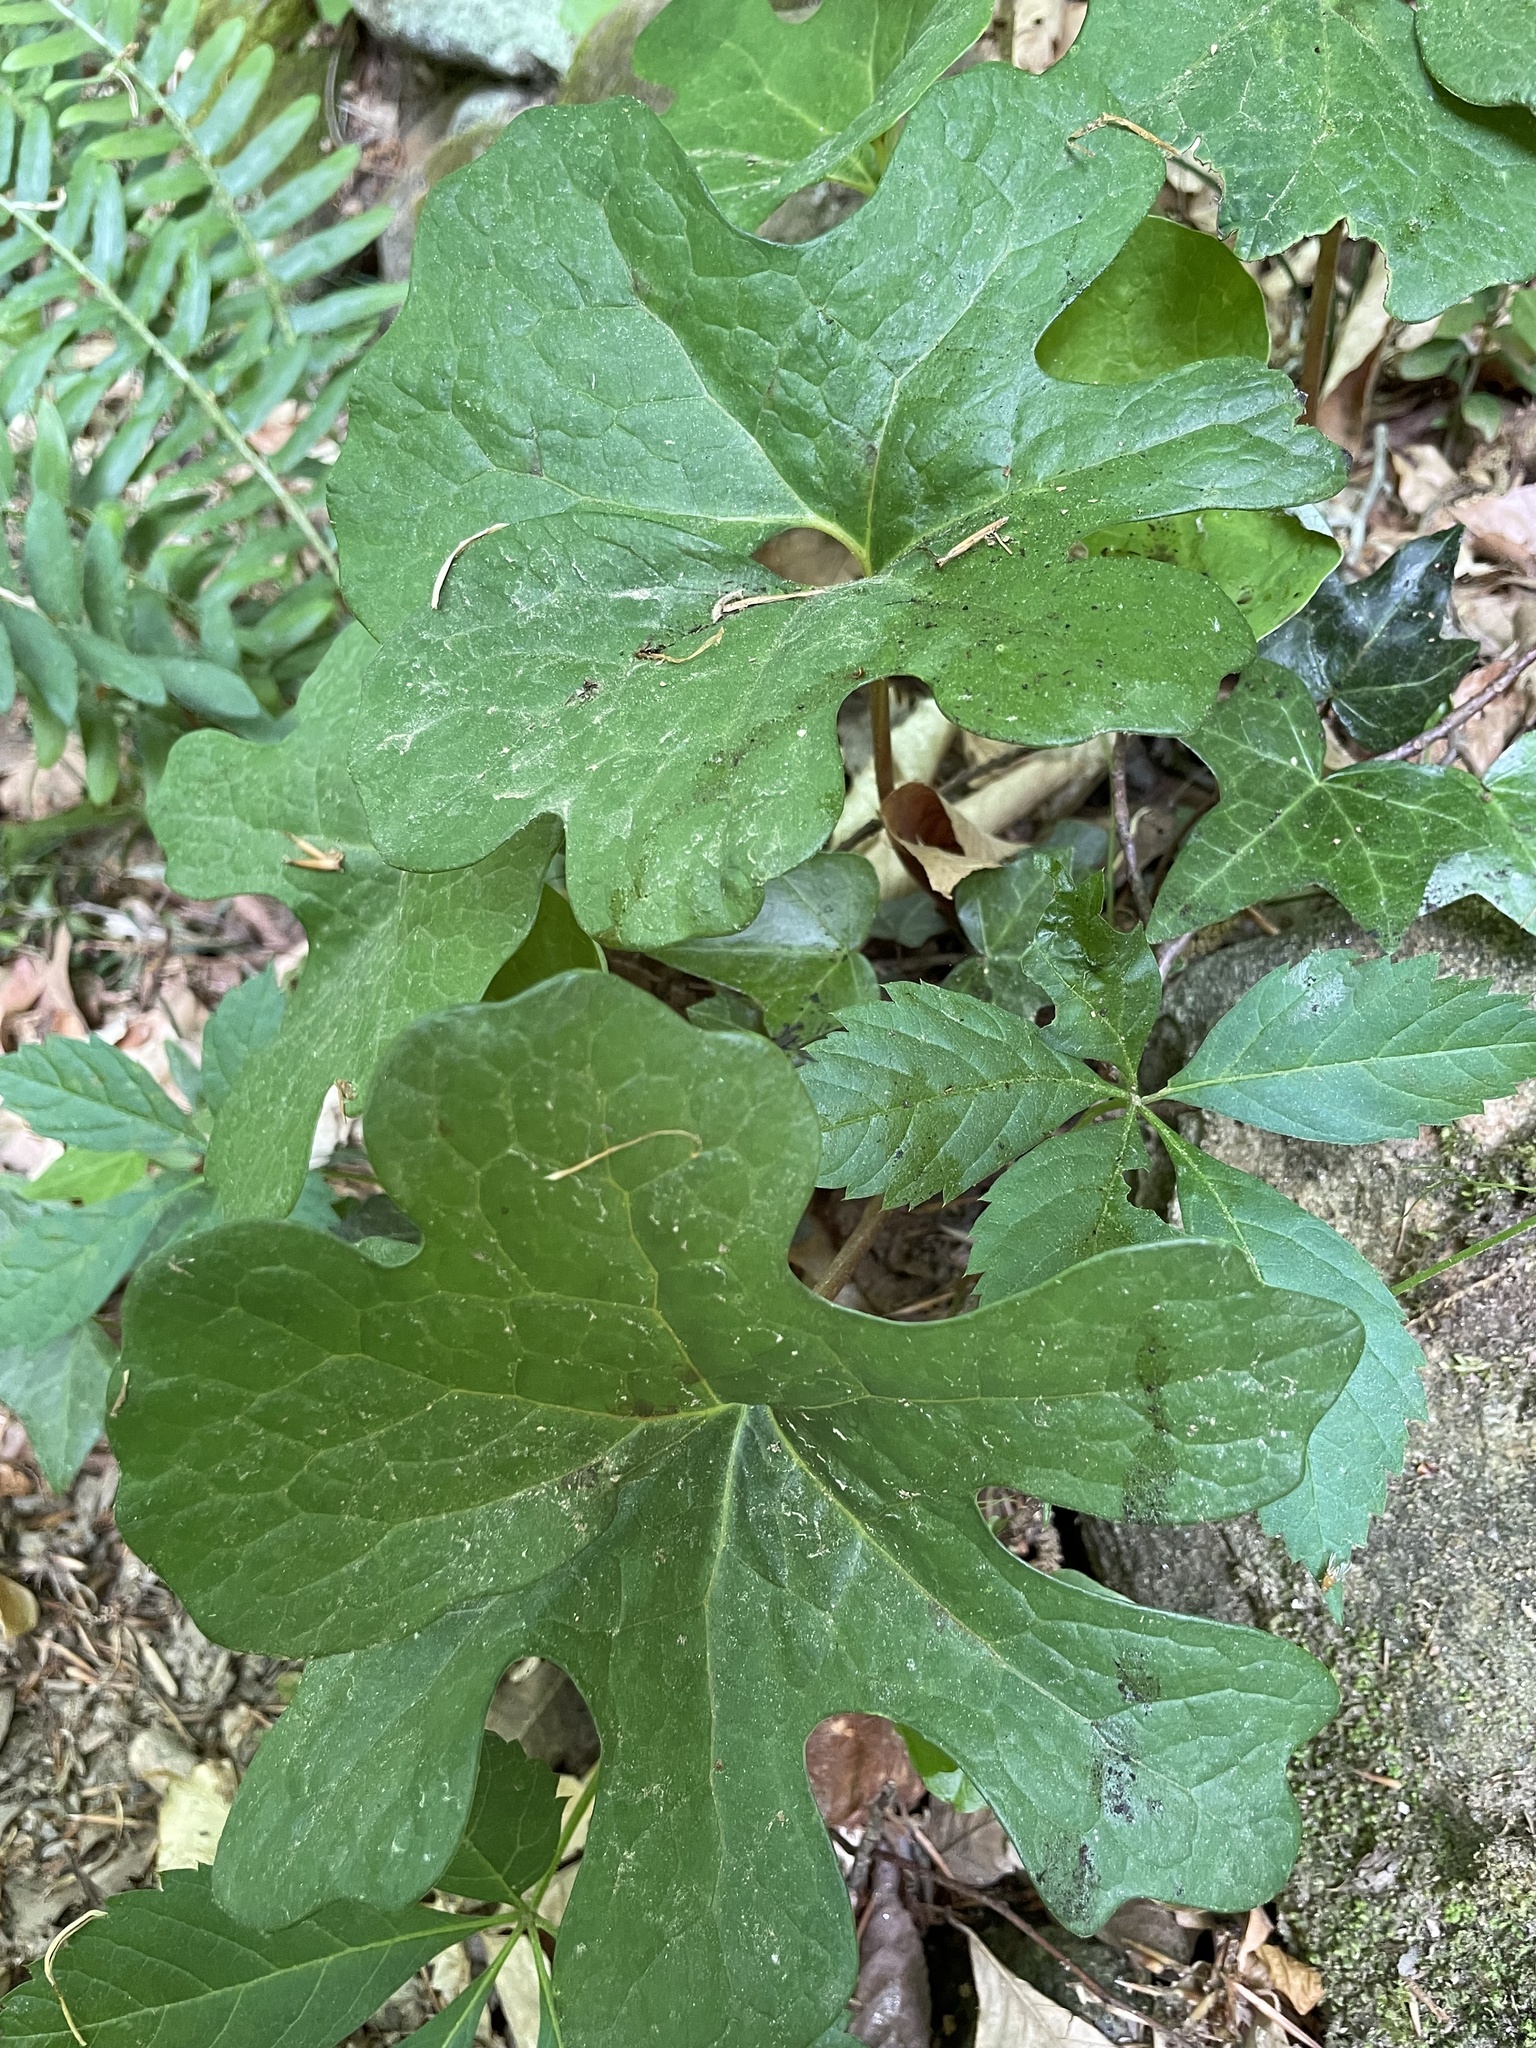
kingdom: Plantae
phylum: Tracheophyta
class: Magnoliopsida
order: Ranunculales
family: Papaveraceae
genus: Sanguinaria
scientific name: Sanguinaria canadensis
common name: Bloodroot
